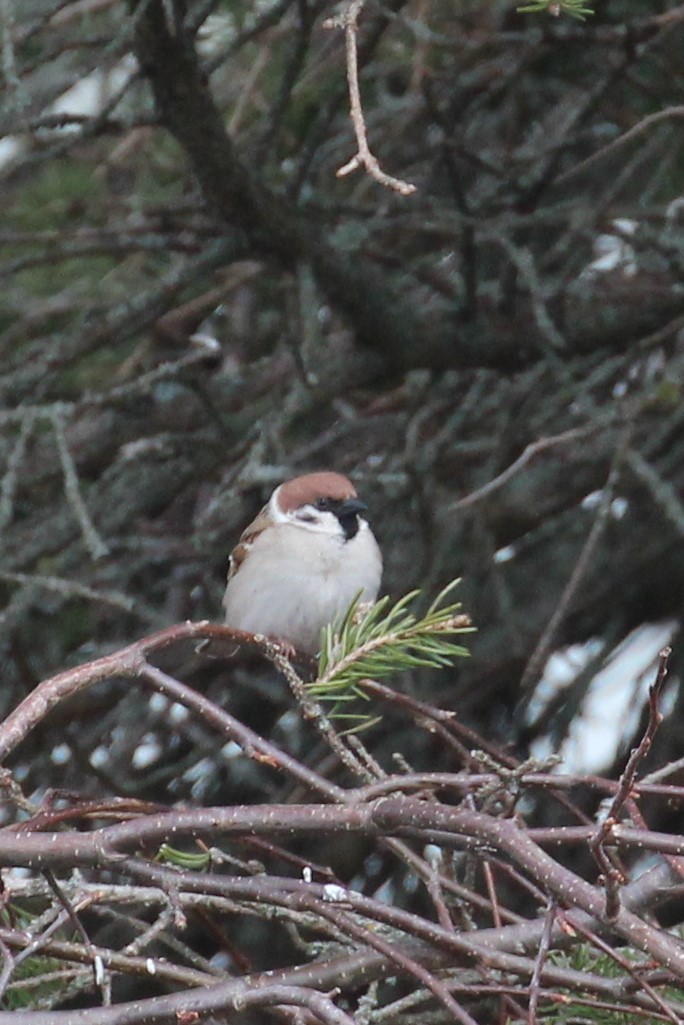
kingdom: Animalia
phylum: Chordata
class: Aves
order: Passeriformes
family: Passeridae
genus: Passer
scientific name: Passer montanus
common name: Eurasian tree sparrow
